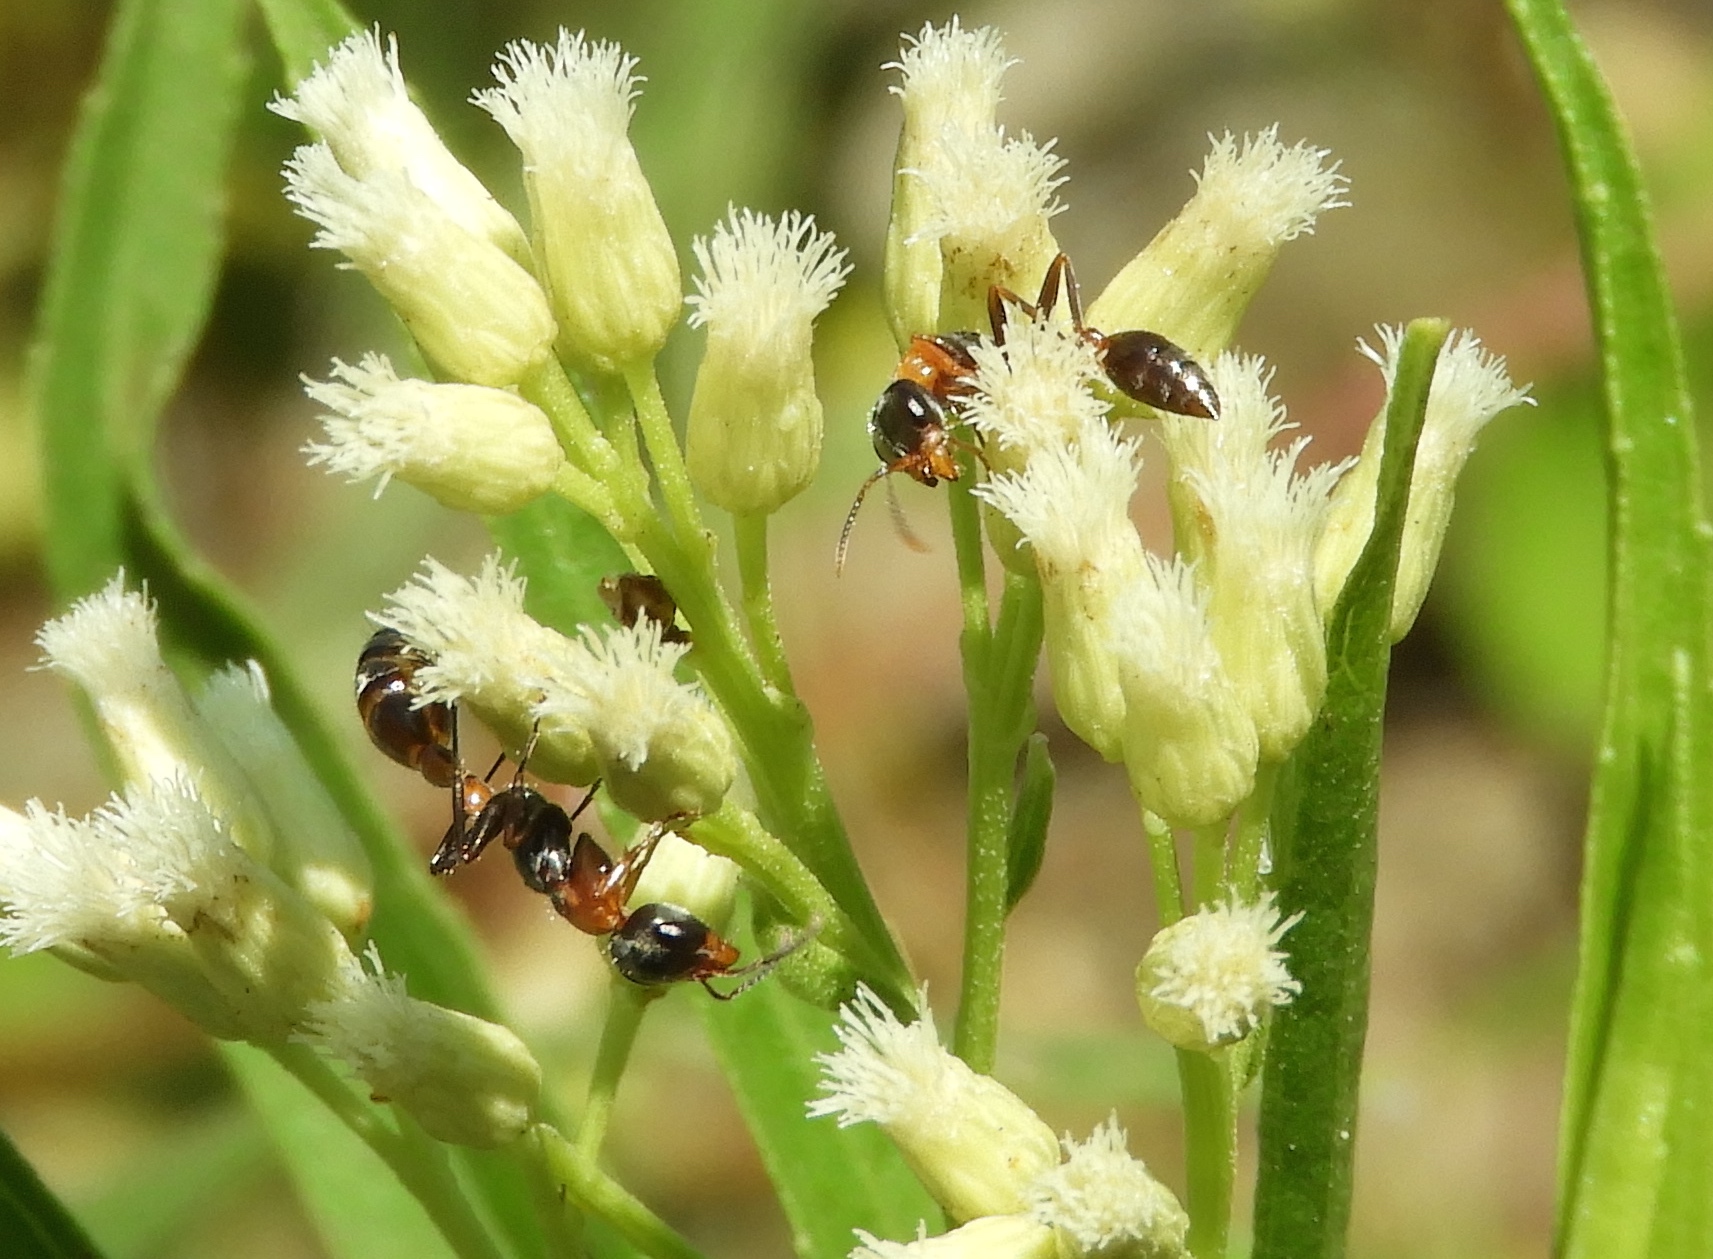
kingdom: Animalia
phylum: Arthropoda
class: Insecta
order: Hymenoptera
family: Formicidae
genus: Pseudomyrmex
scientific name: Pseudomyrmex gracilis
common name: Graceful twig ant
